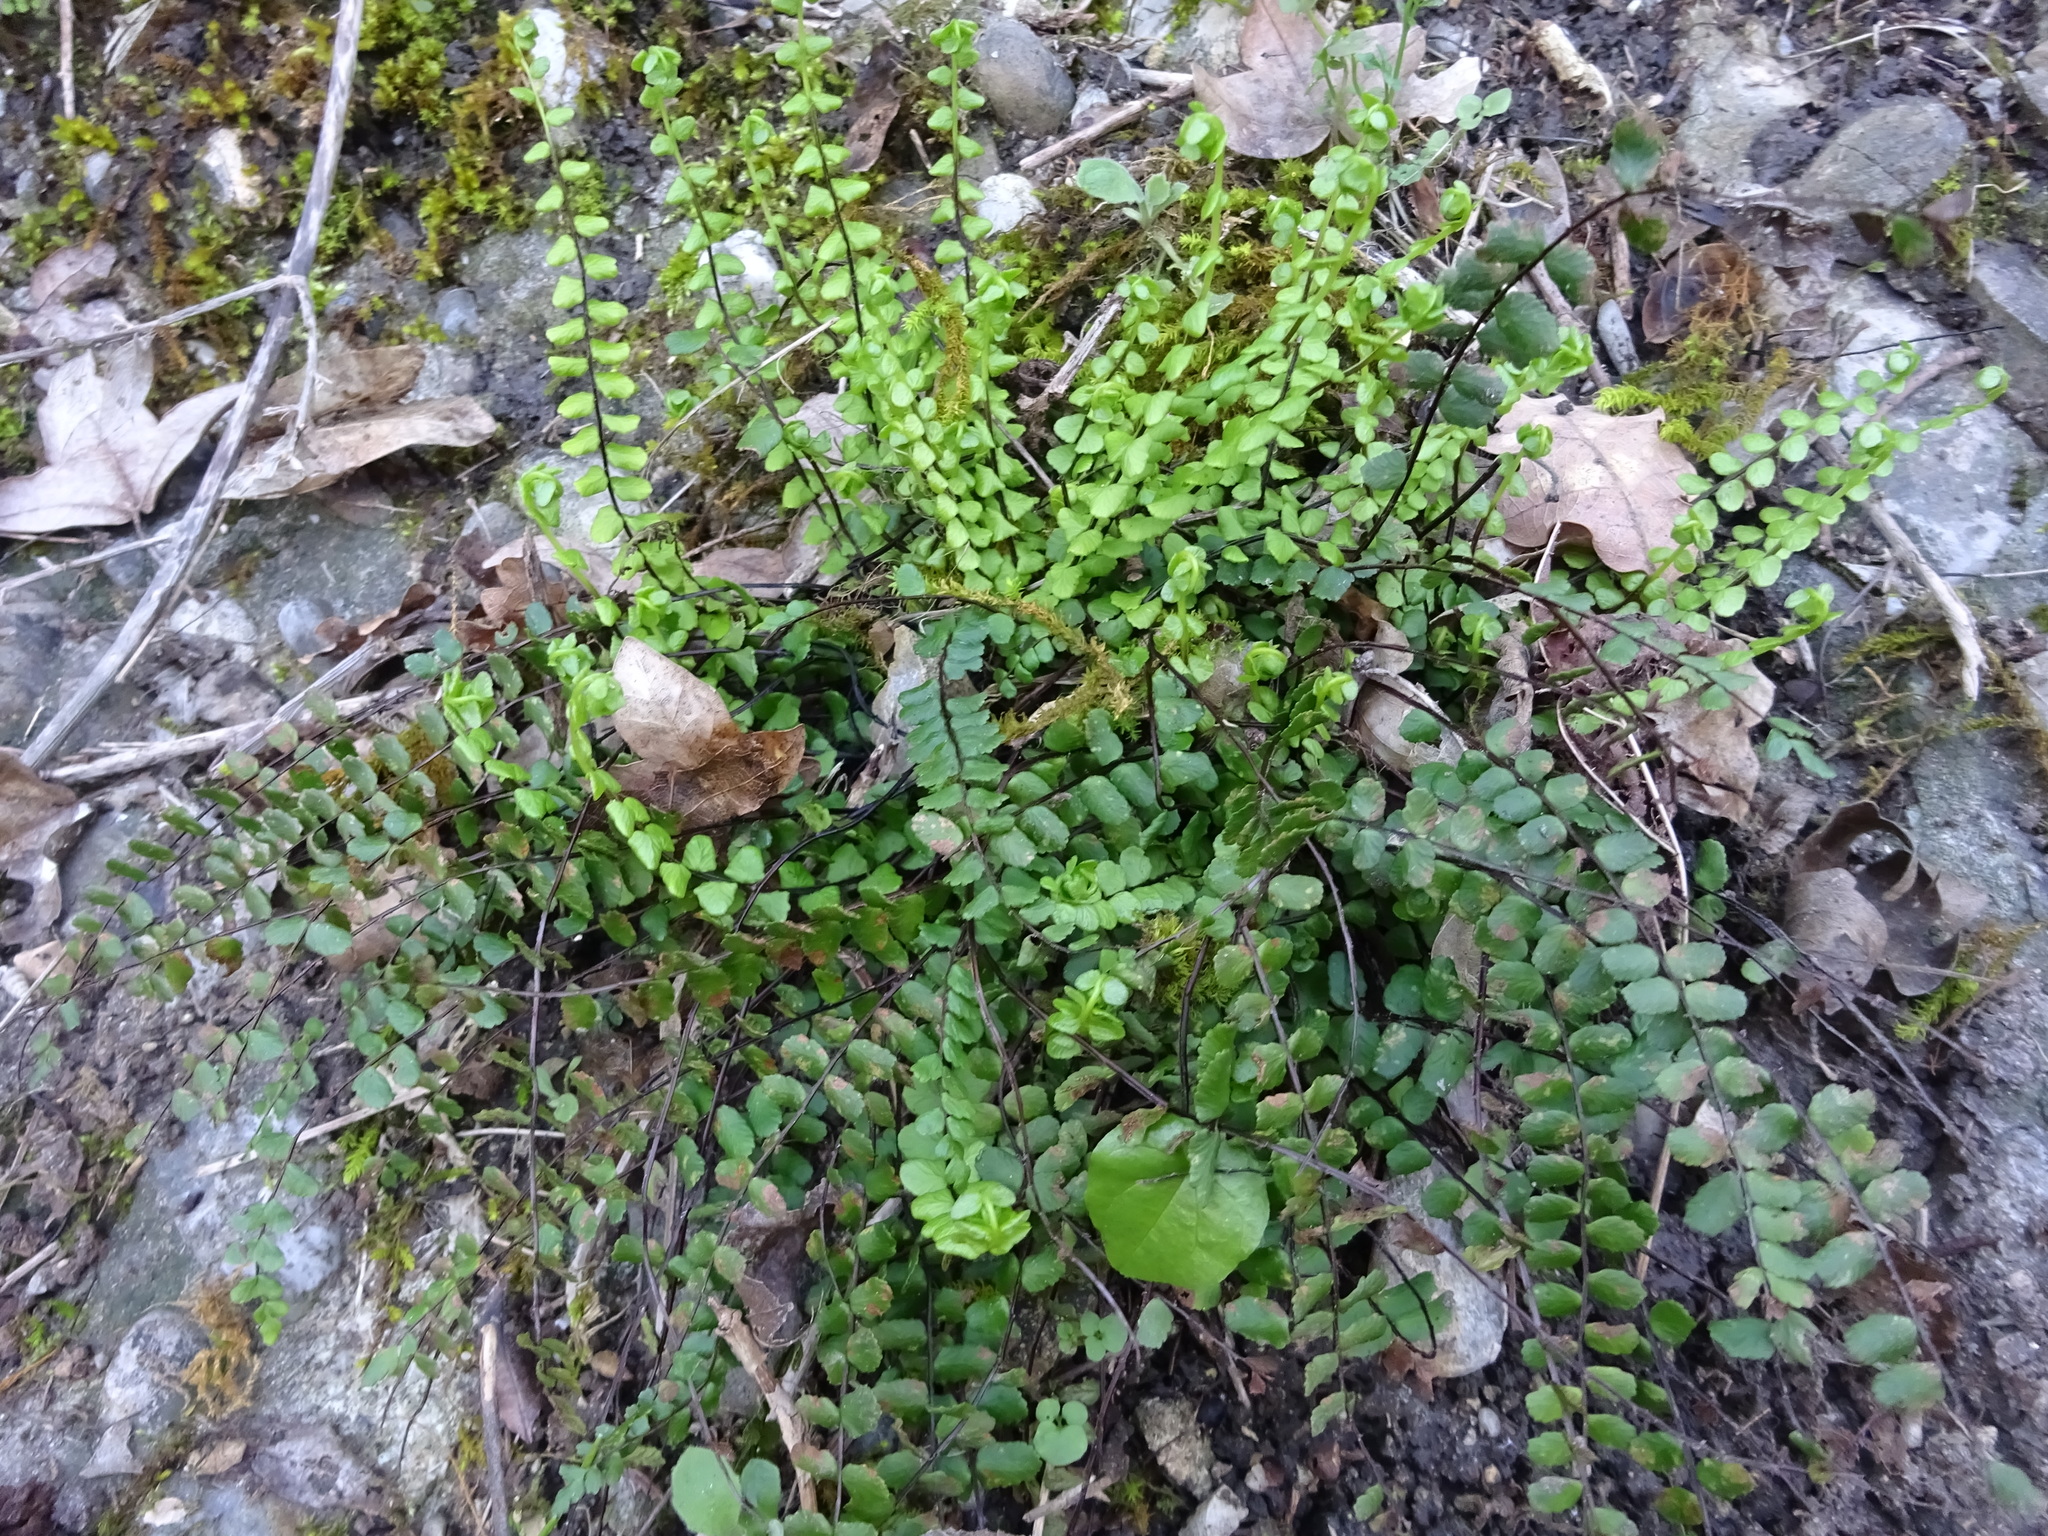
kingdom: Plantae
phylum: Tracheophyta
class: Polypodiopsida
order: Polypodiales
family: Aspleniaceae
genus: Asplenium
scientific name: Asplenium trichomanes
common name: Maidenhair spleenwort
